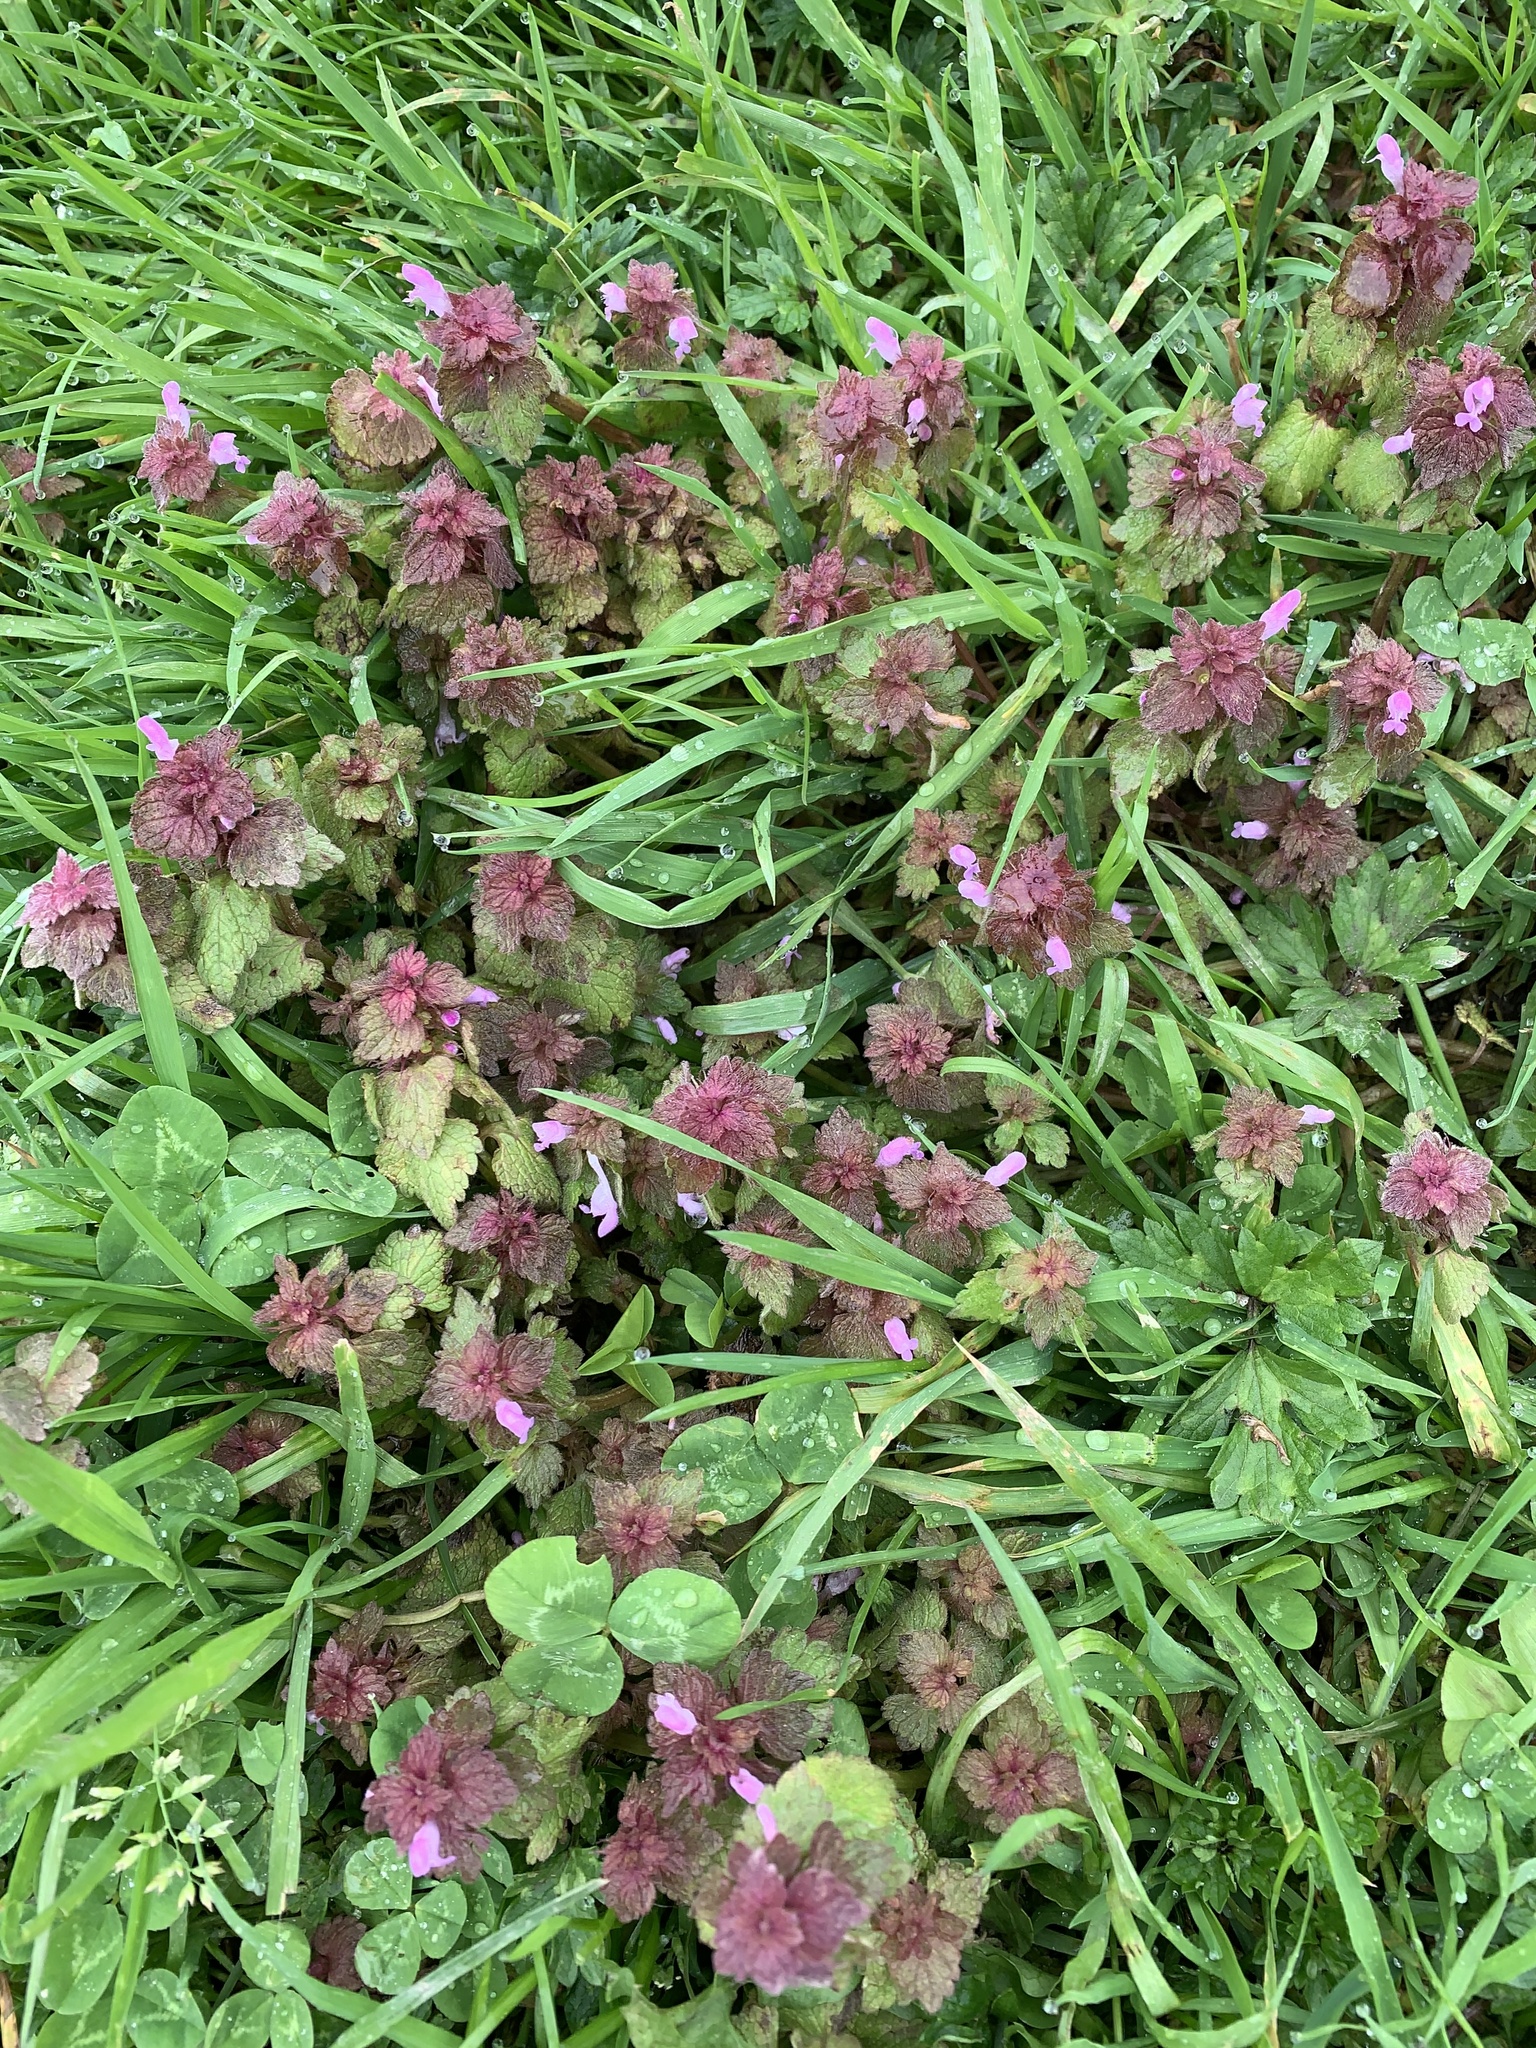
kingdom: Plantae
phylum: Tracheophyta
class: Magnoliopsida
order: Lamiales
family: Lamiaceae
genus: Lamium
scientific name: Lamium purpureum
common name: Red dead-nettle
